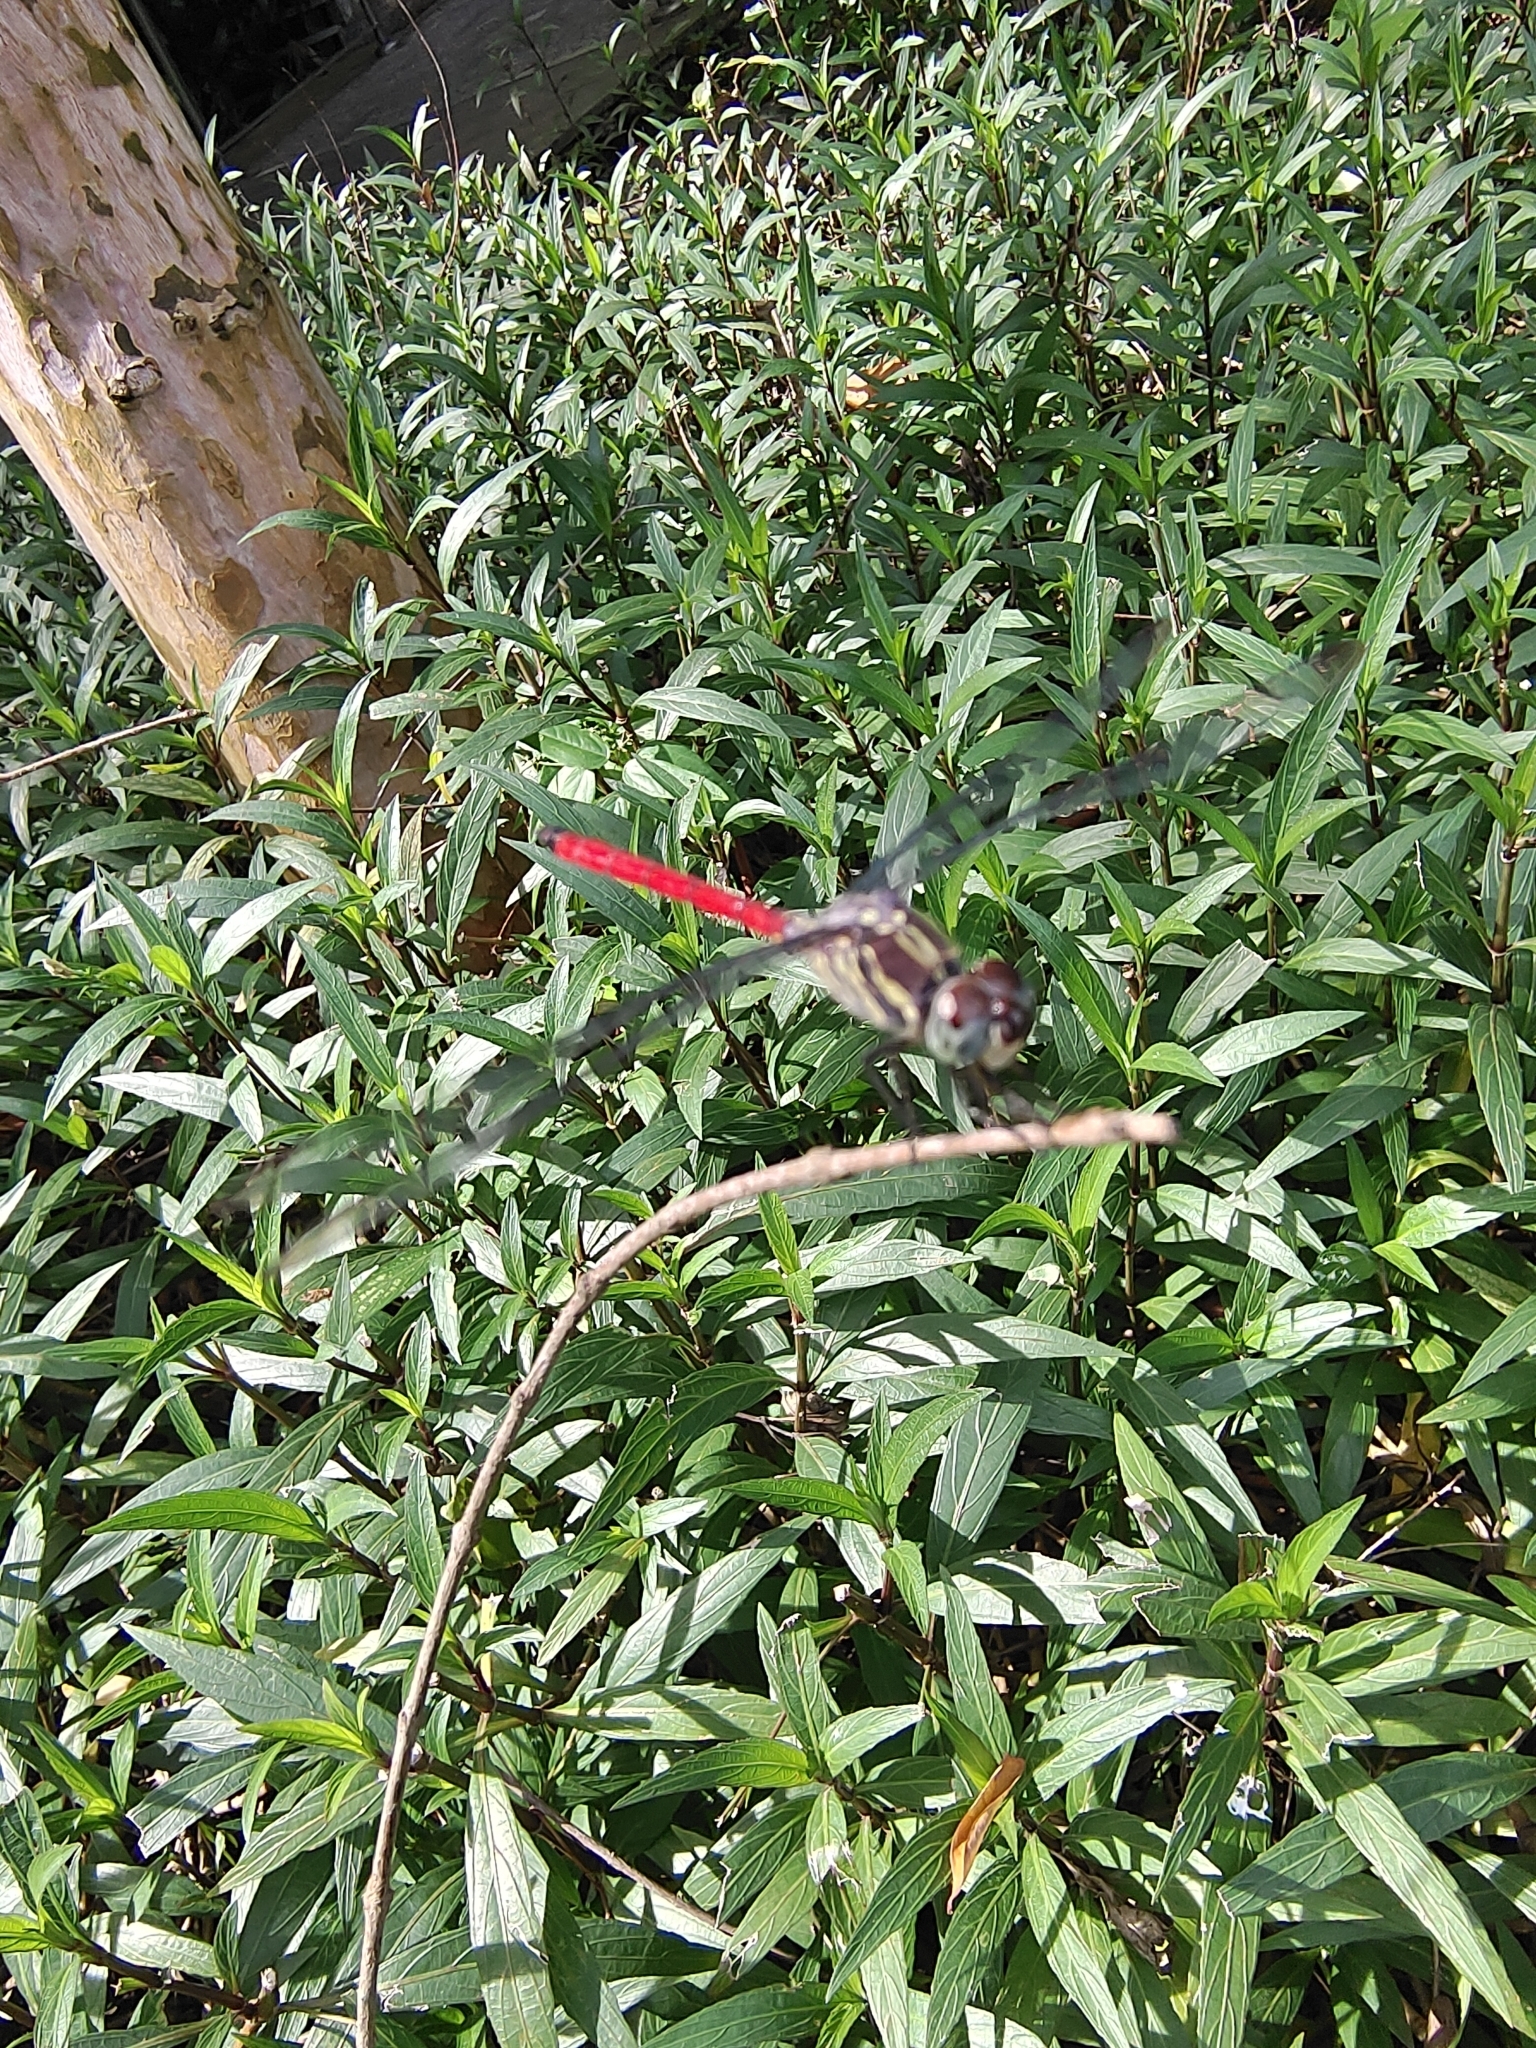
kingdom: Animalia
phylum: Arthropoda
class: Insecta
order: Odonata
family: Libellulidae
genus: Lathrecista
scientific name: Lathrecista asiatica
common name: Scarlet grenadier
